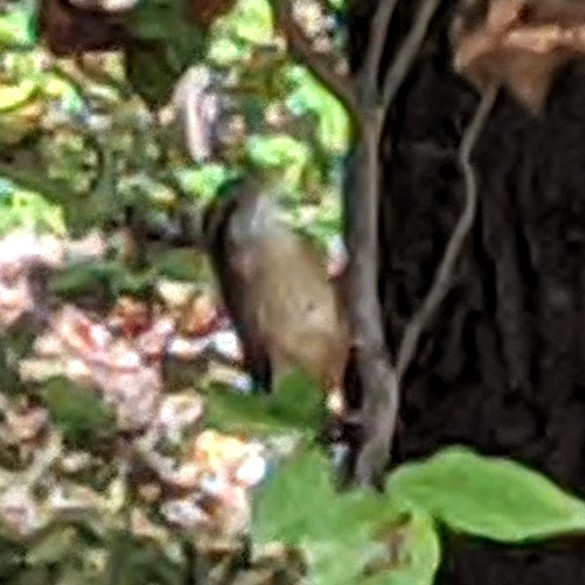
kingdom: Animalia
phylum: Chordata
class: Aves
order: Passeriformes
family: Troglodytidae
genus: Thryothorus
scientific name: Thryothorus ludovicianus
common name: Carolina wren
